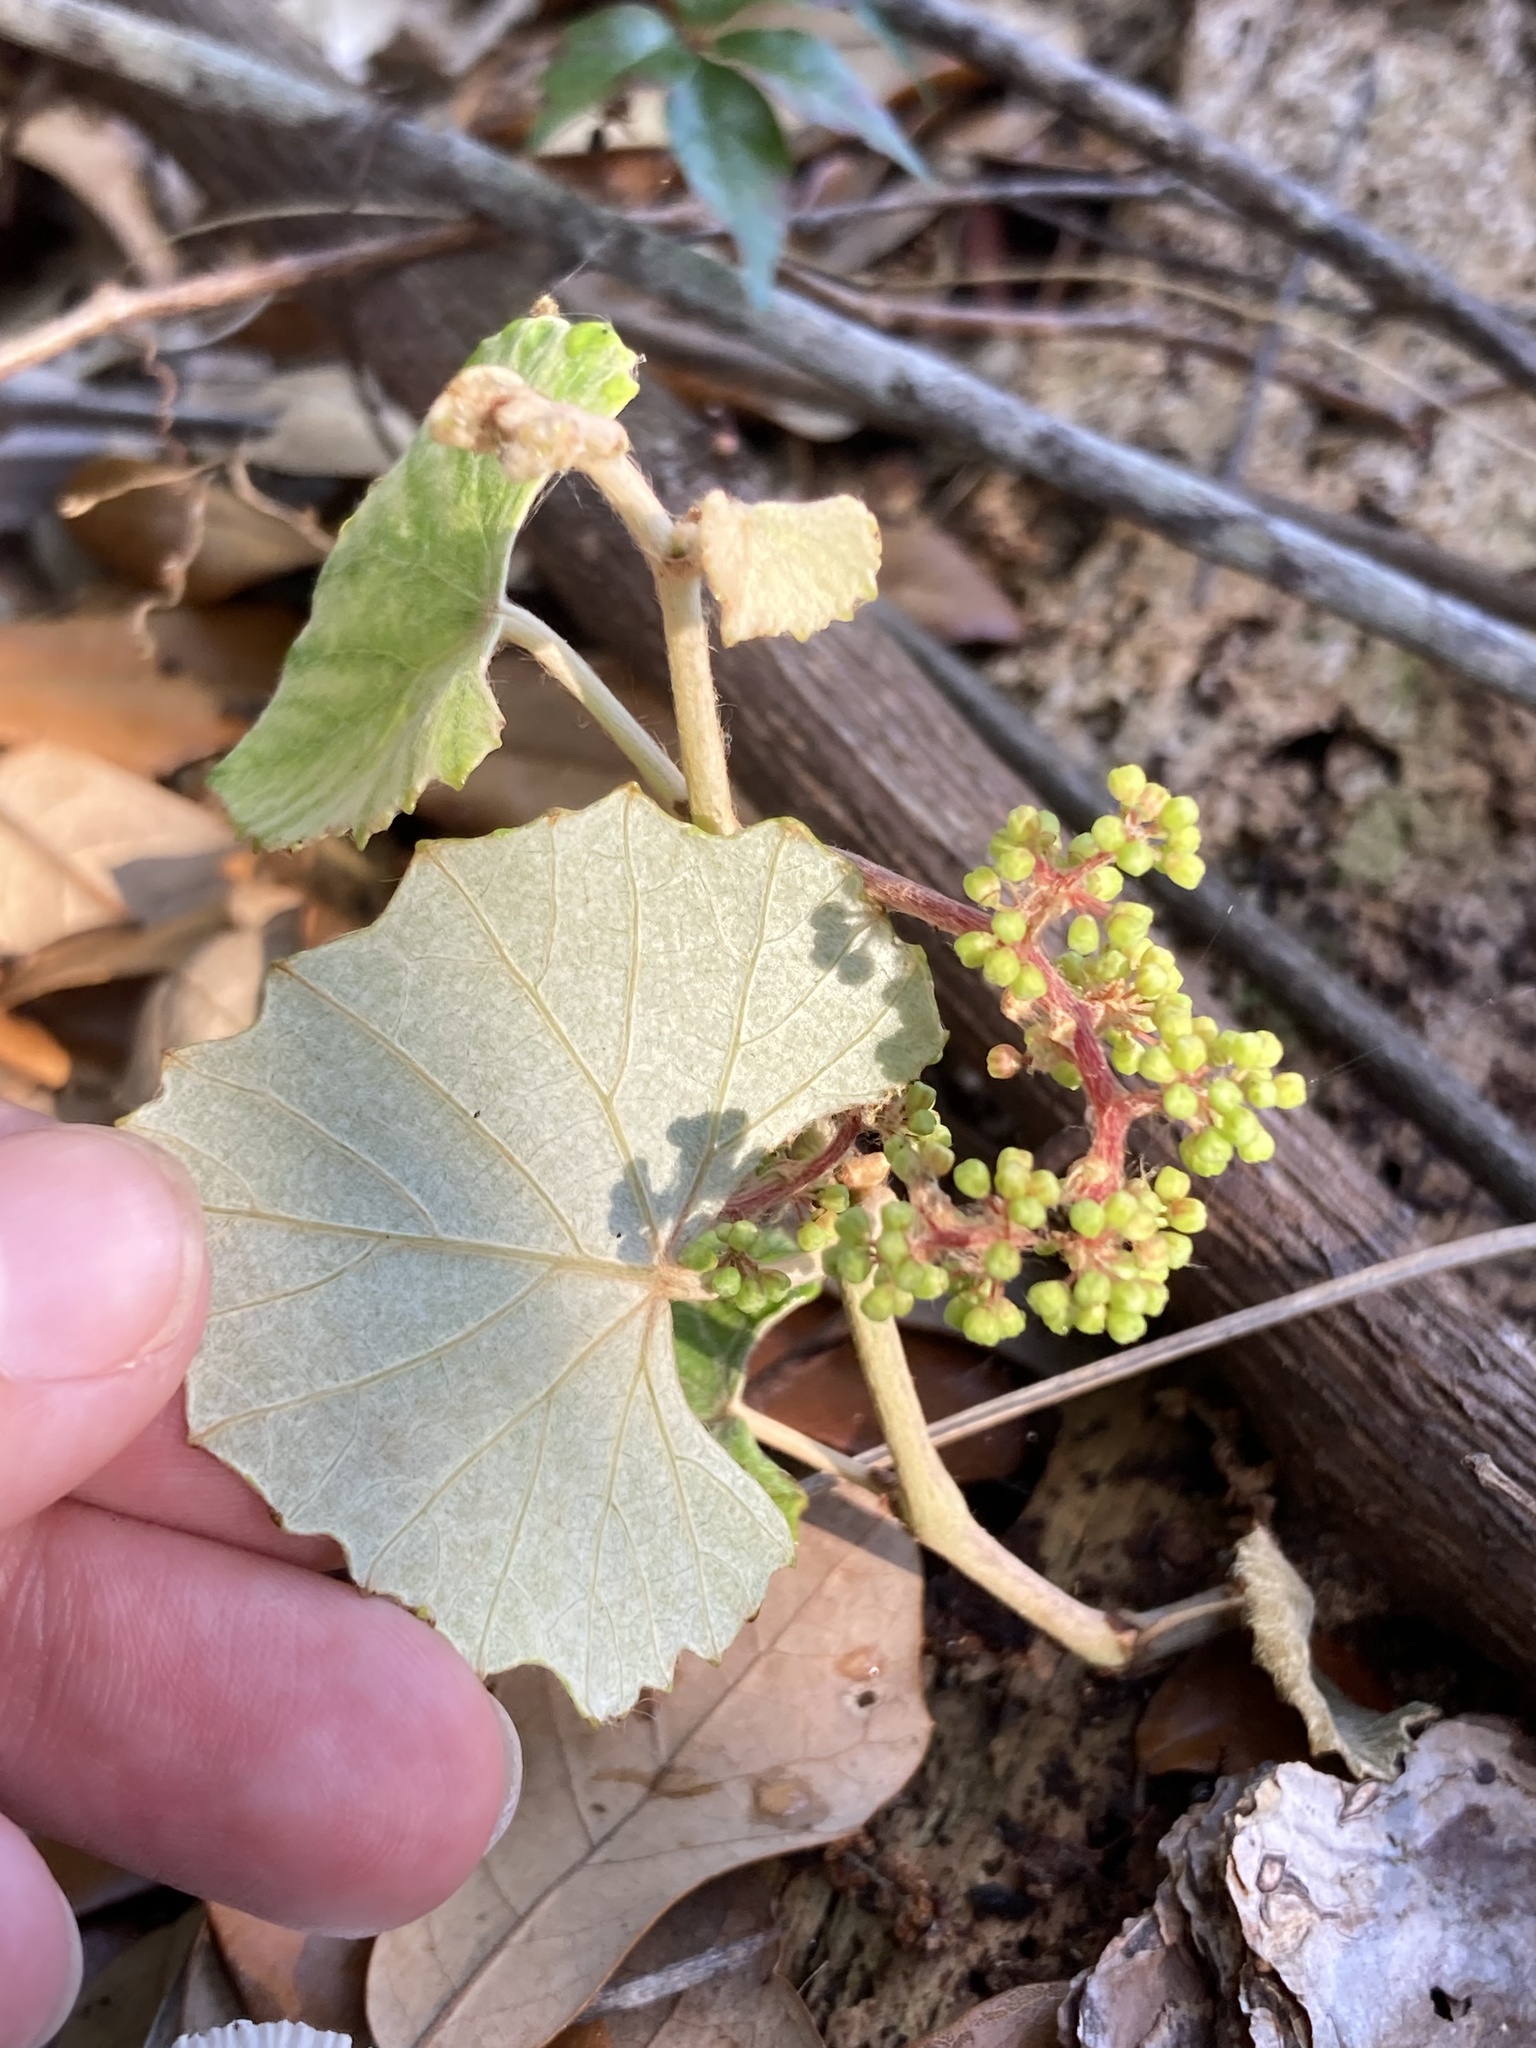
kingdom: Plantae
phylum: Tracheophyta
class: Magnoliopsida
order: Vitales
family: Vitaceae
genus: Vitis
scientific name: Vitis shuttleworthii
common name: Caloosa grape
